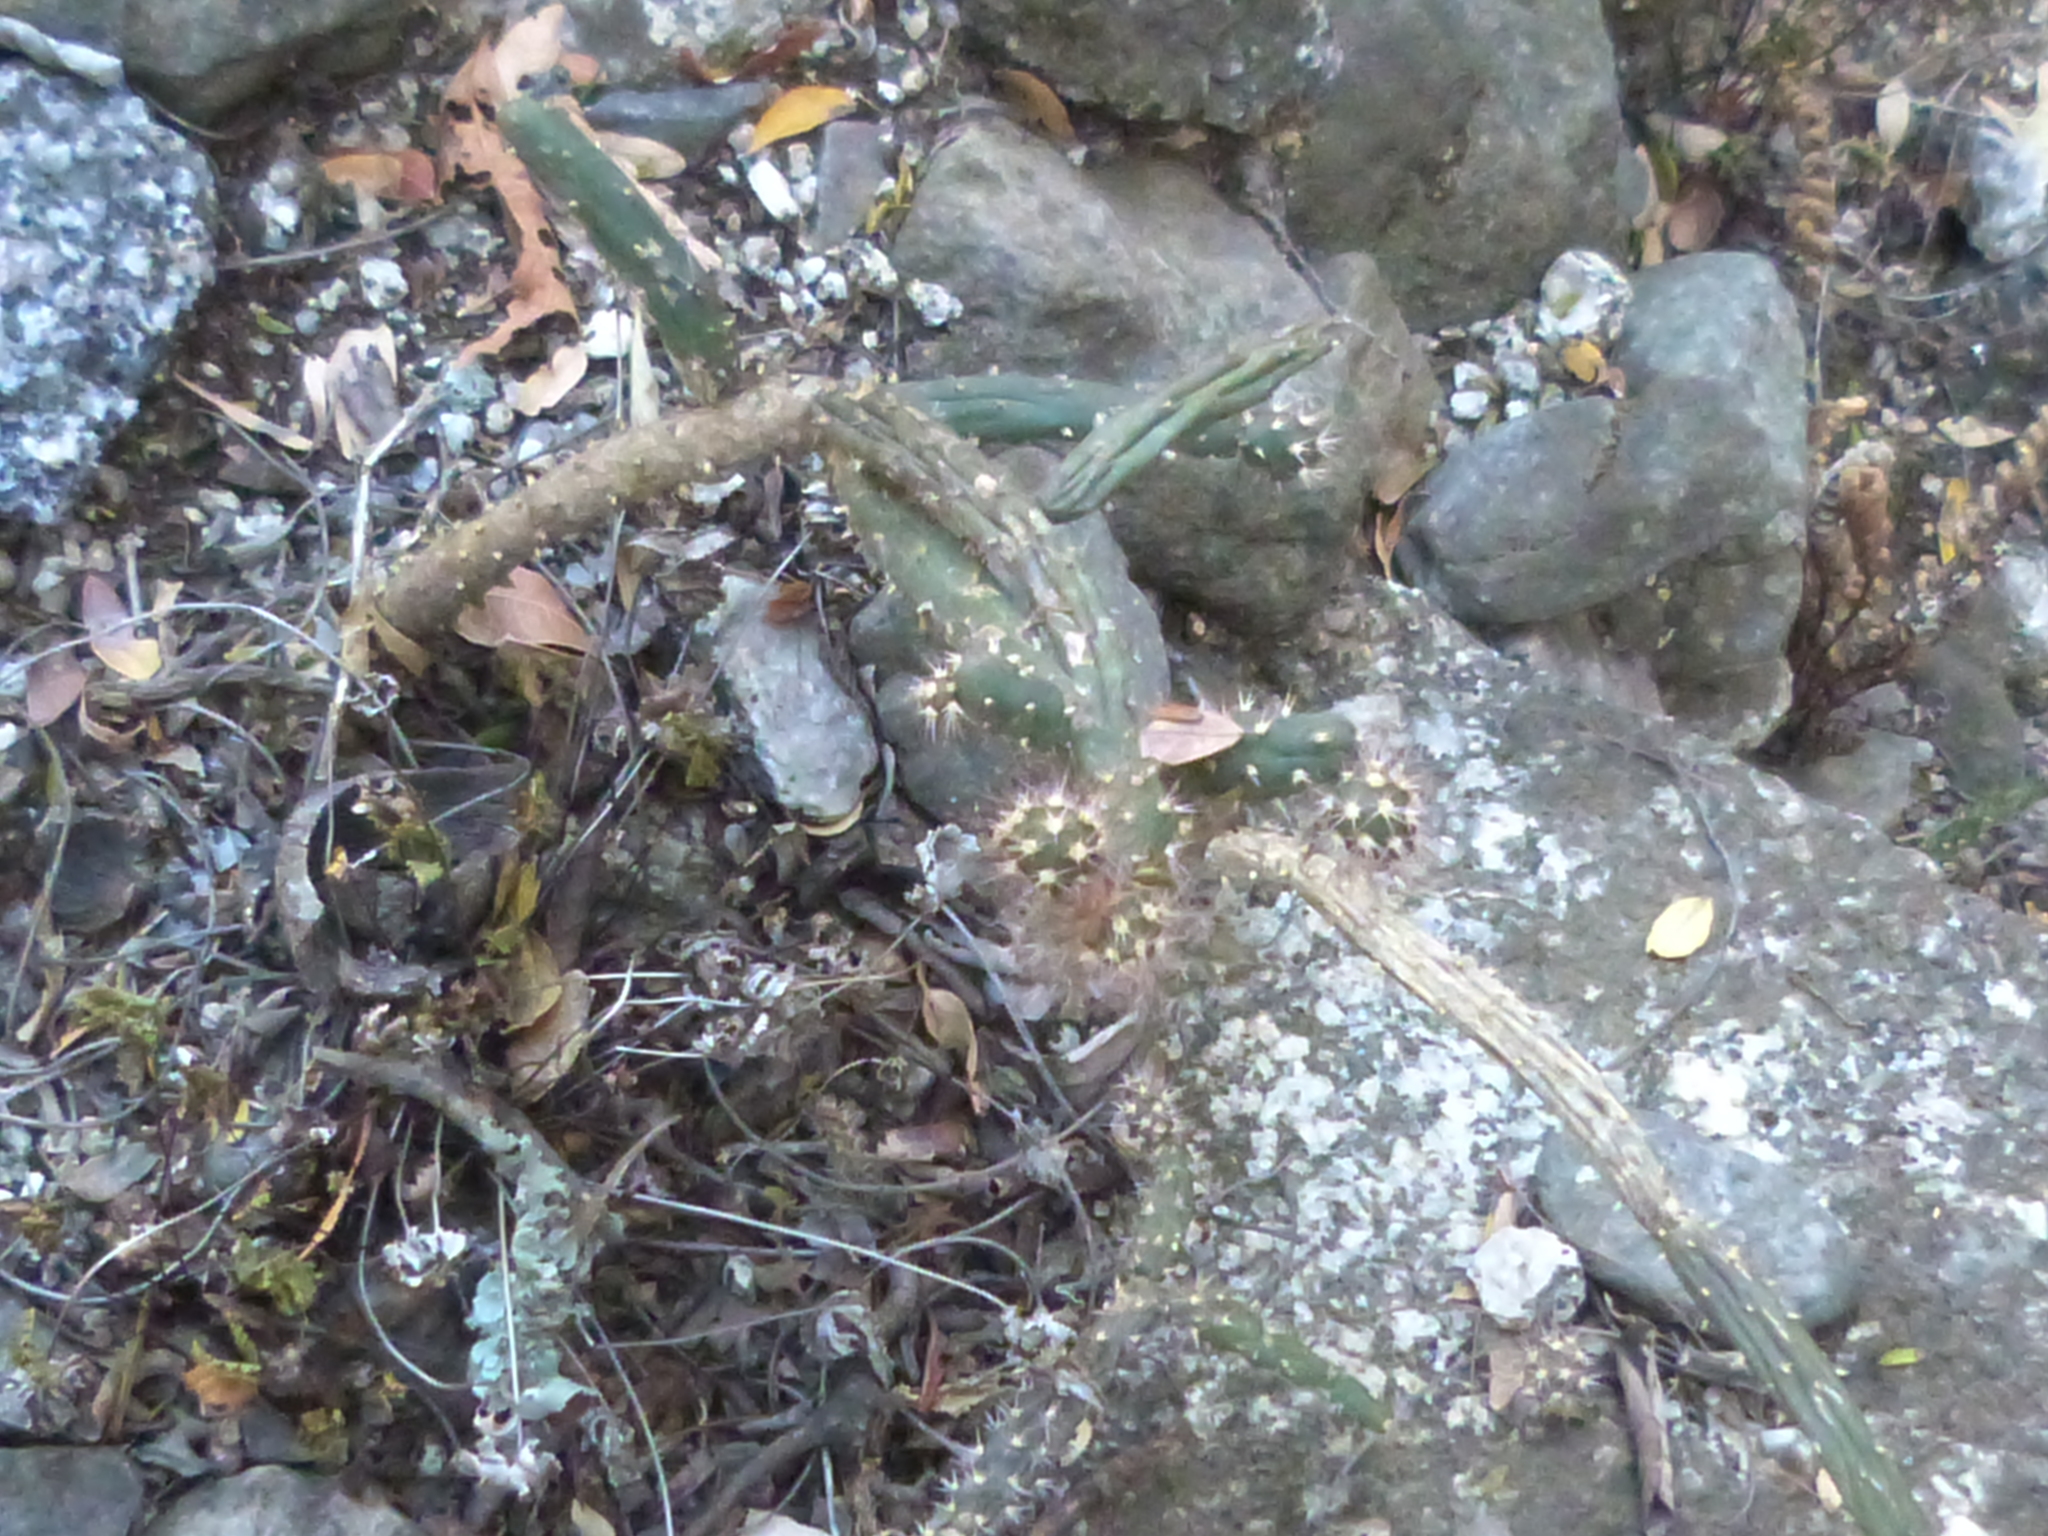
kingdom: Plantae
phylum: Tracheophyta
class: Magnoliopsida
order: Caryophyllales
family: Cactaceae
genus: Salmonopuntia
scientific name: Salmonopuntia salmiana
